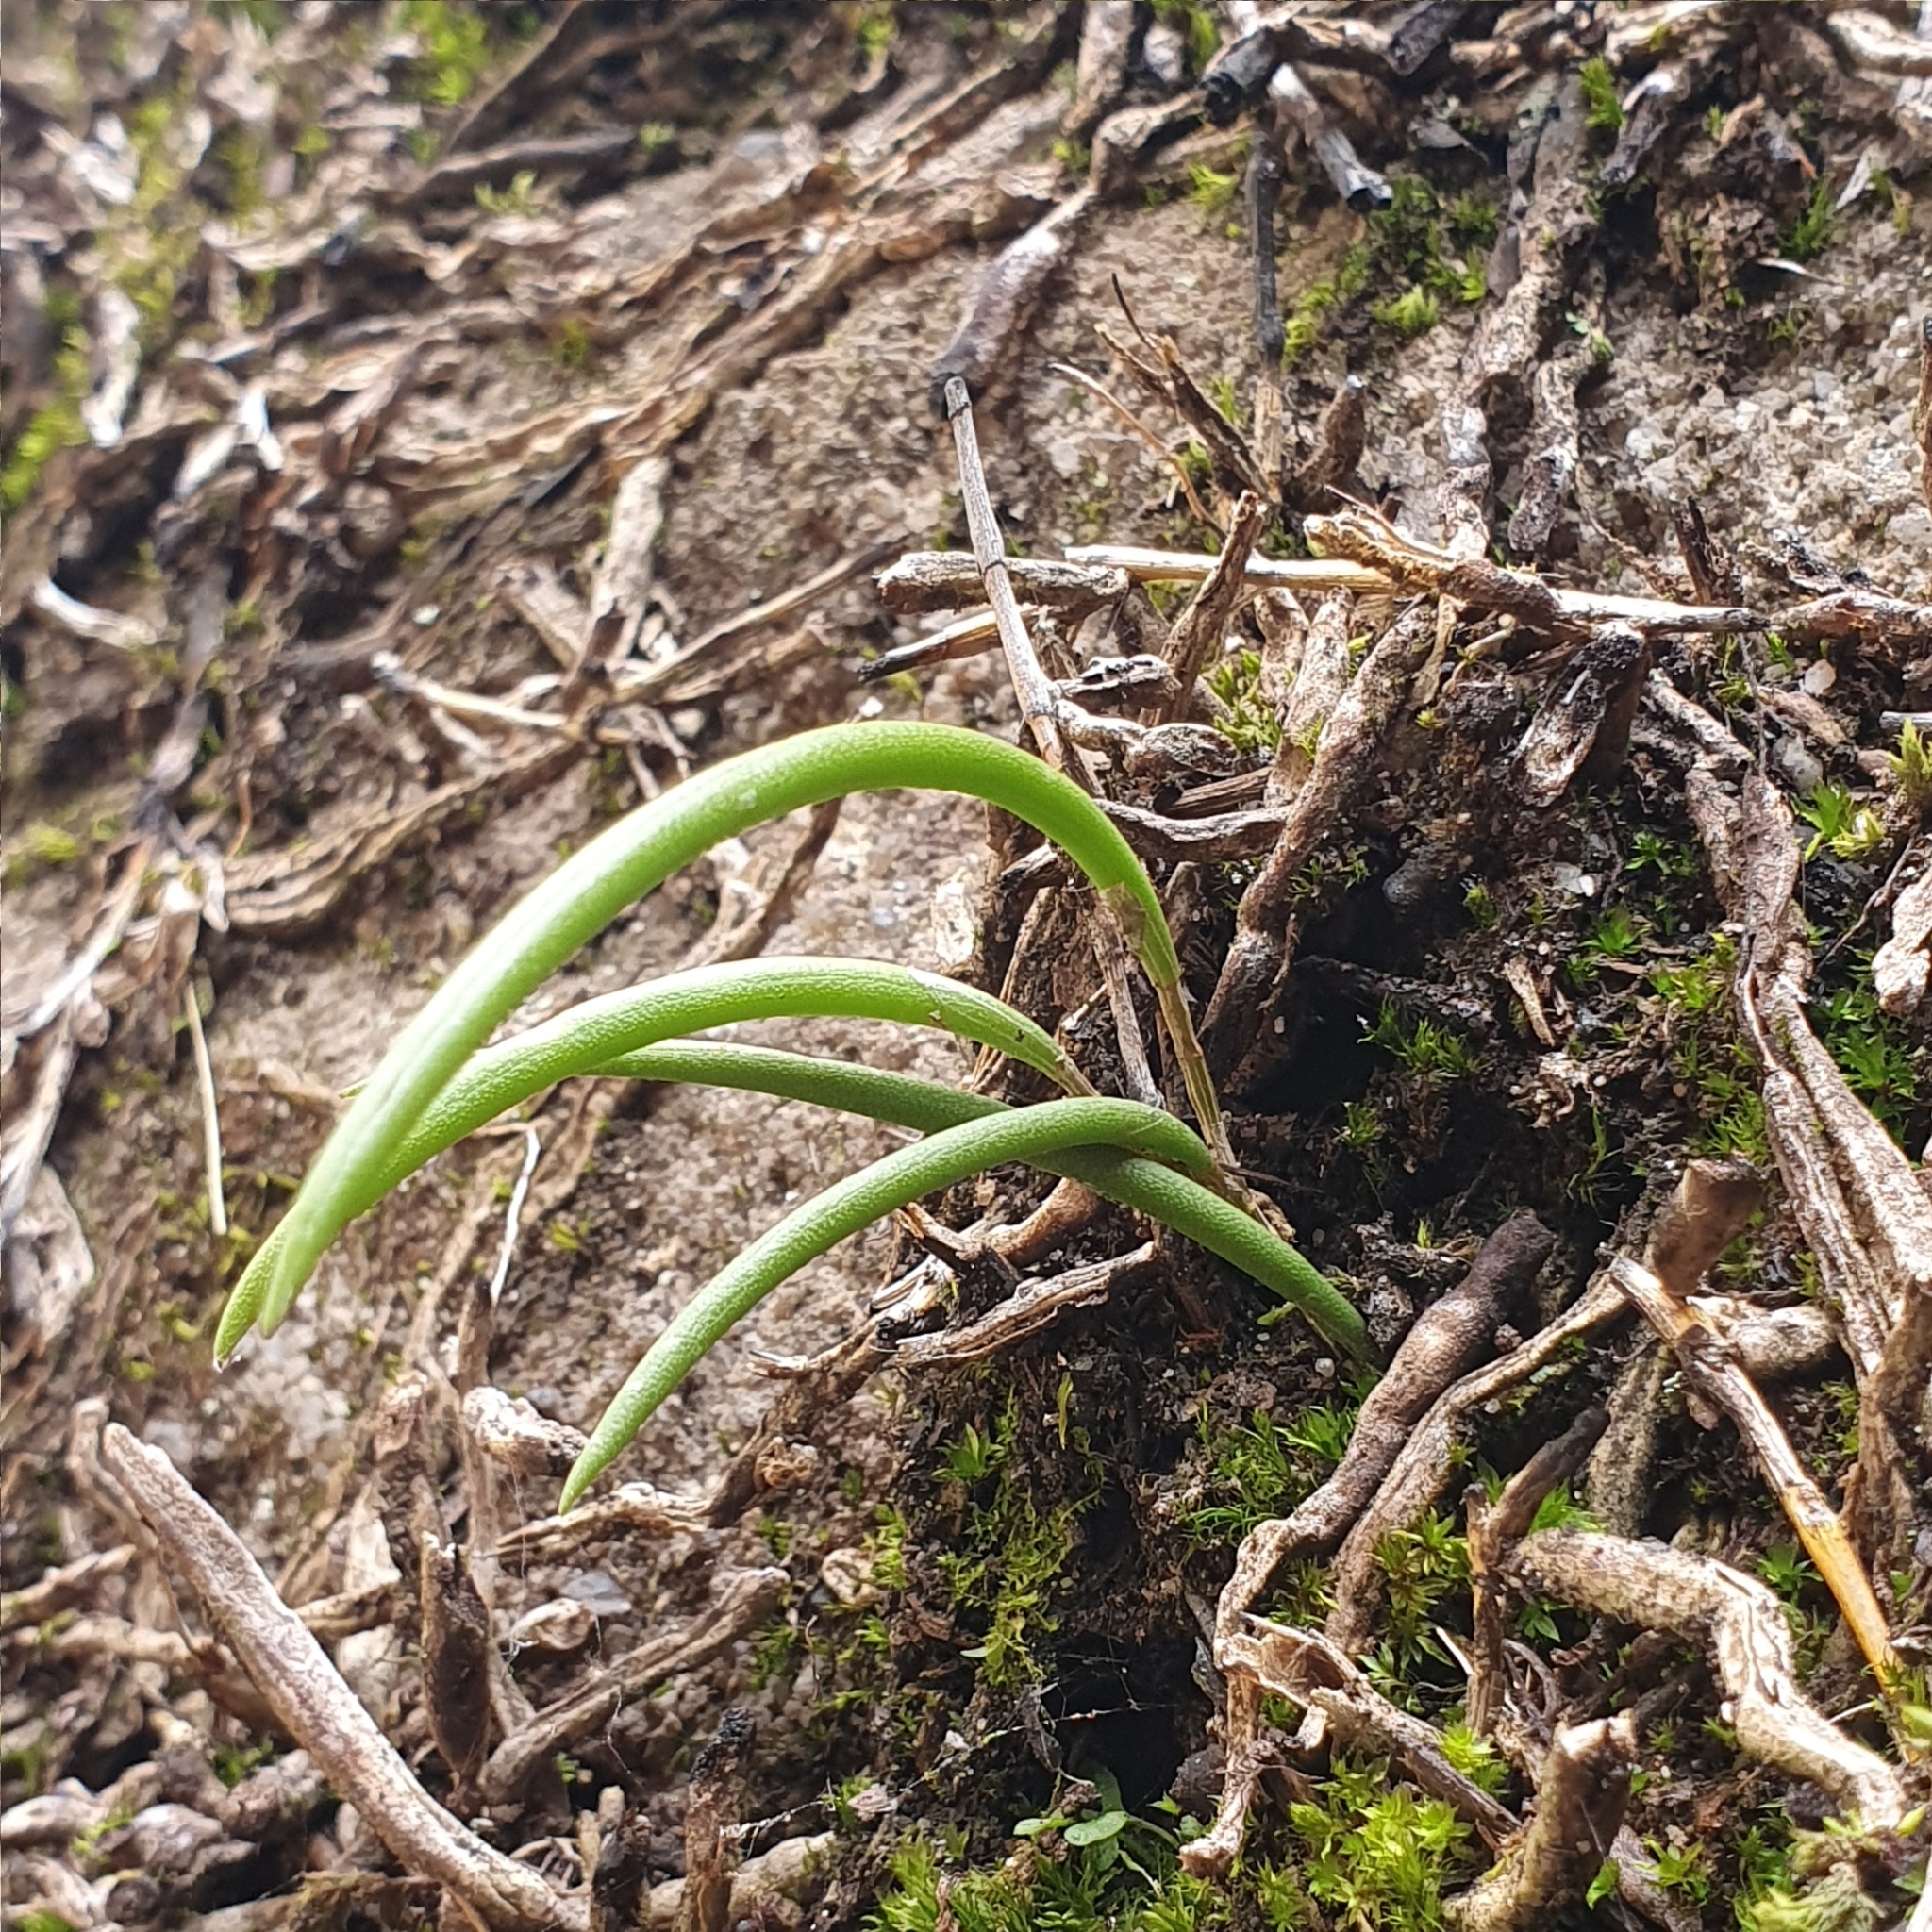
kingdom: Plantae
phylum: Tracheophyta
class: Liliopsida
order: Asparagales
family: Orchidaceae
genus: Dendrobium
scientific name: Dendrobium striolatum
